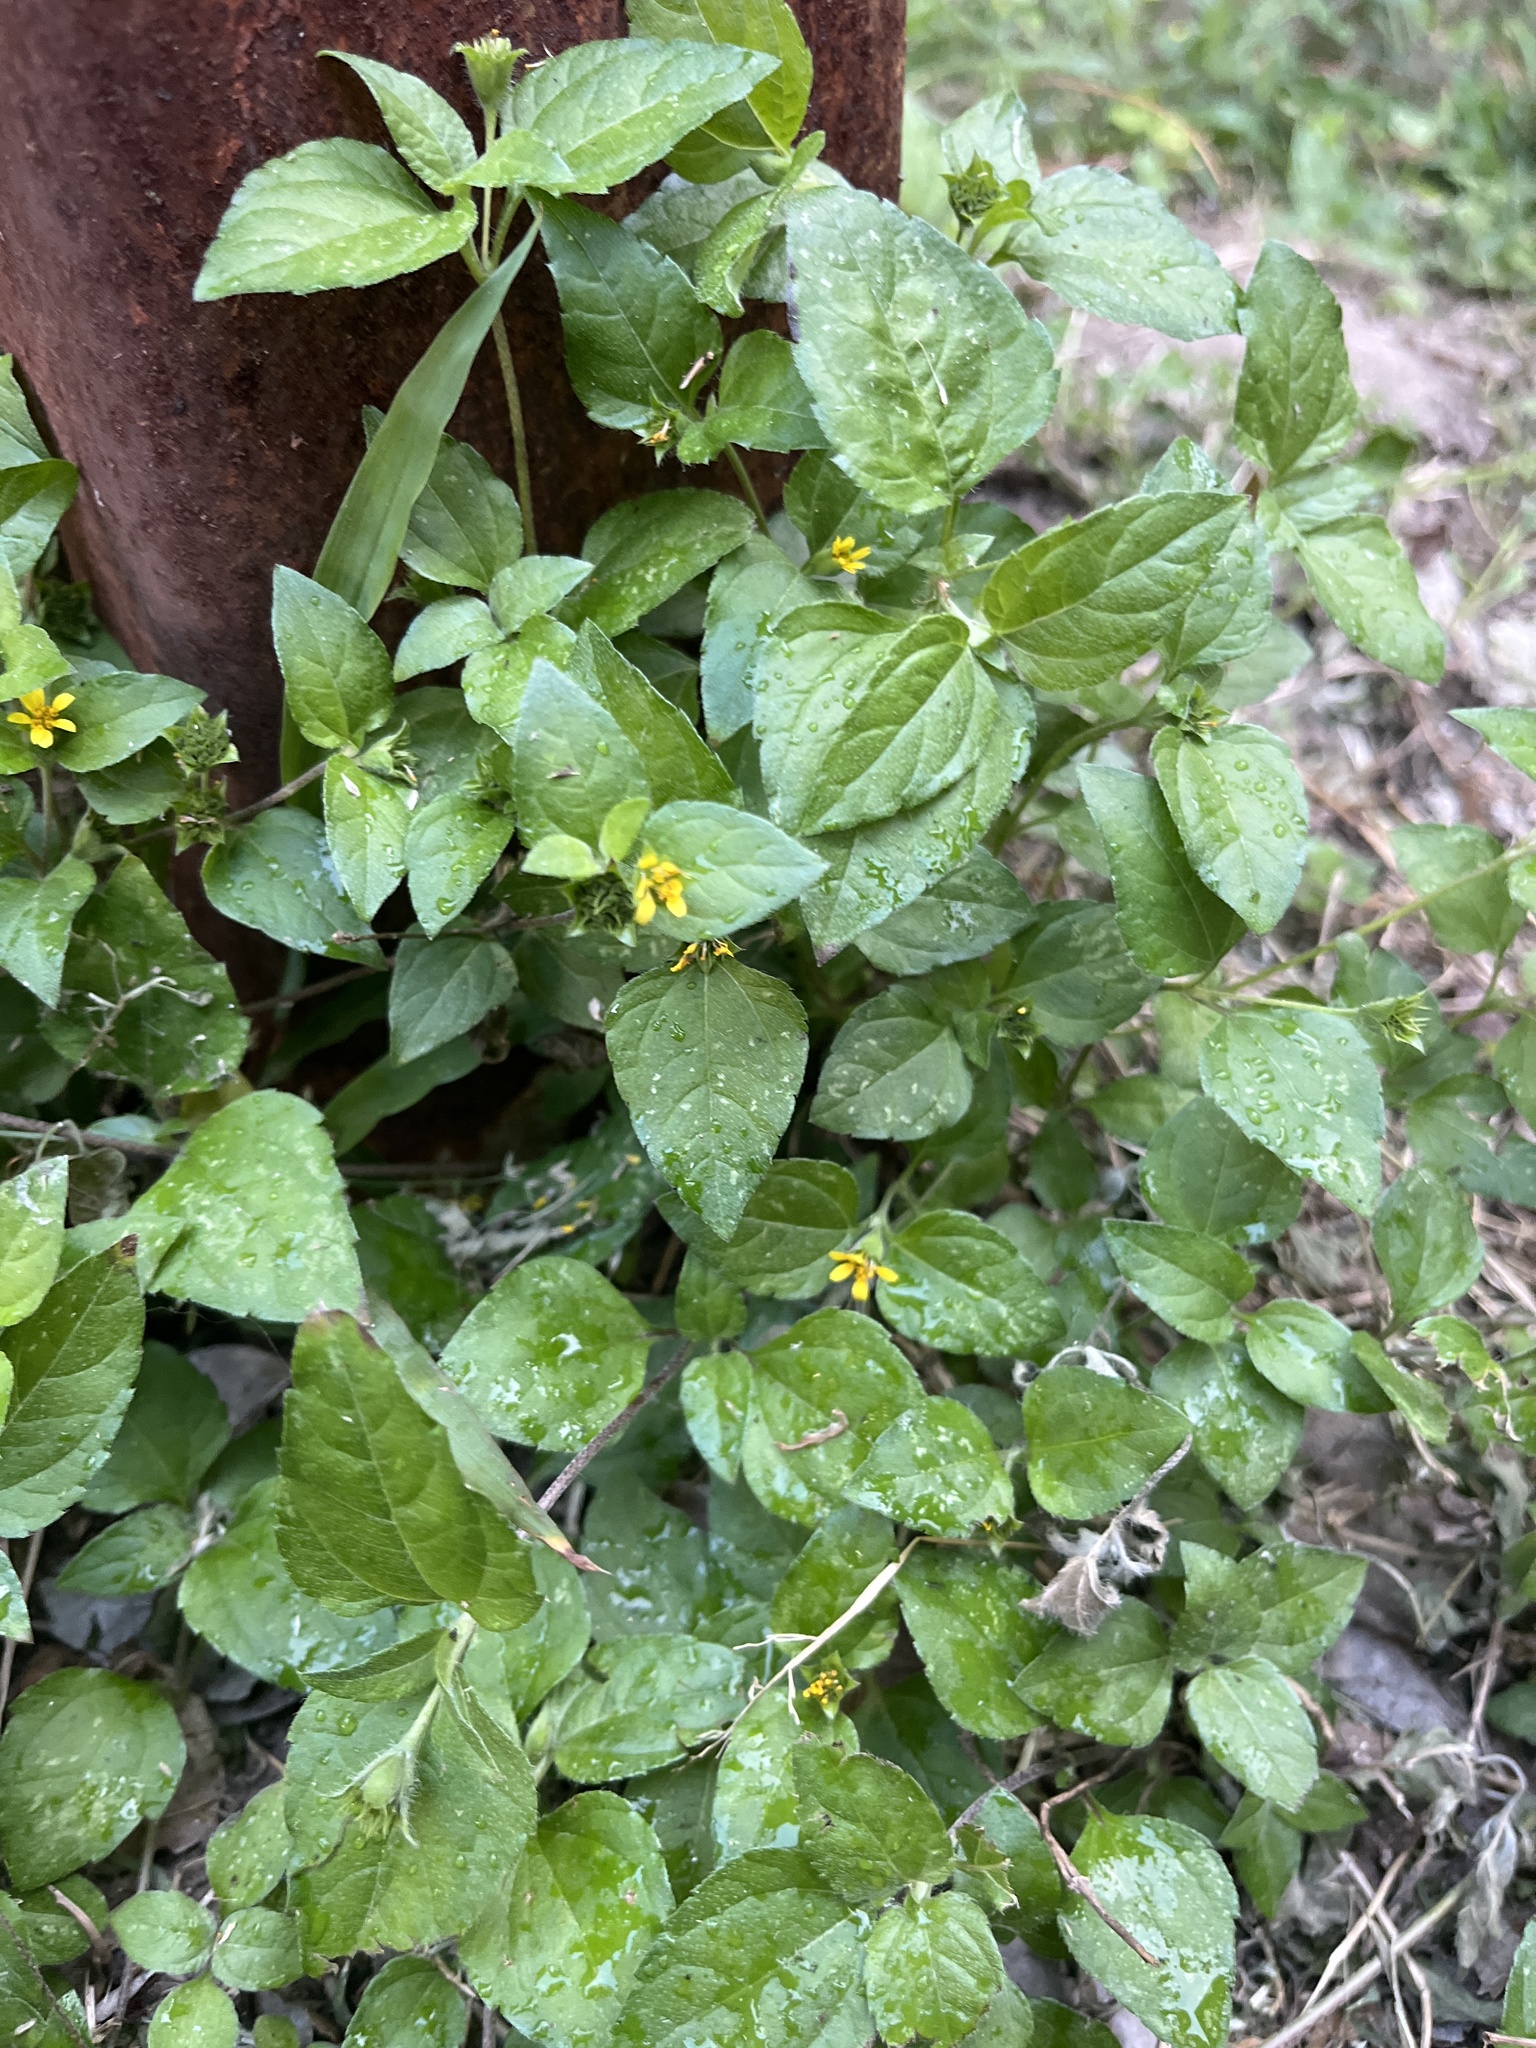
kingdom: Plantae
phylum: Tracheophyta
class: Magnoliopsida
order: Asterales
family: Asteraceae
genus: Calyptocarpus
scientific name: Calyptocarpus vialis
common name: Straggler daisy
